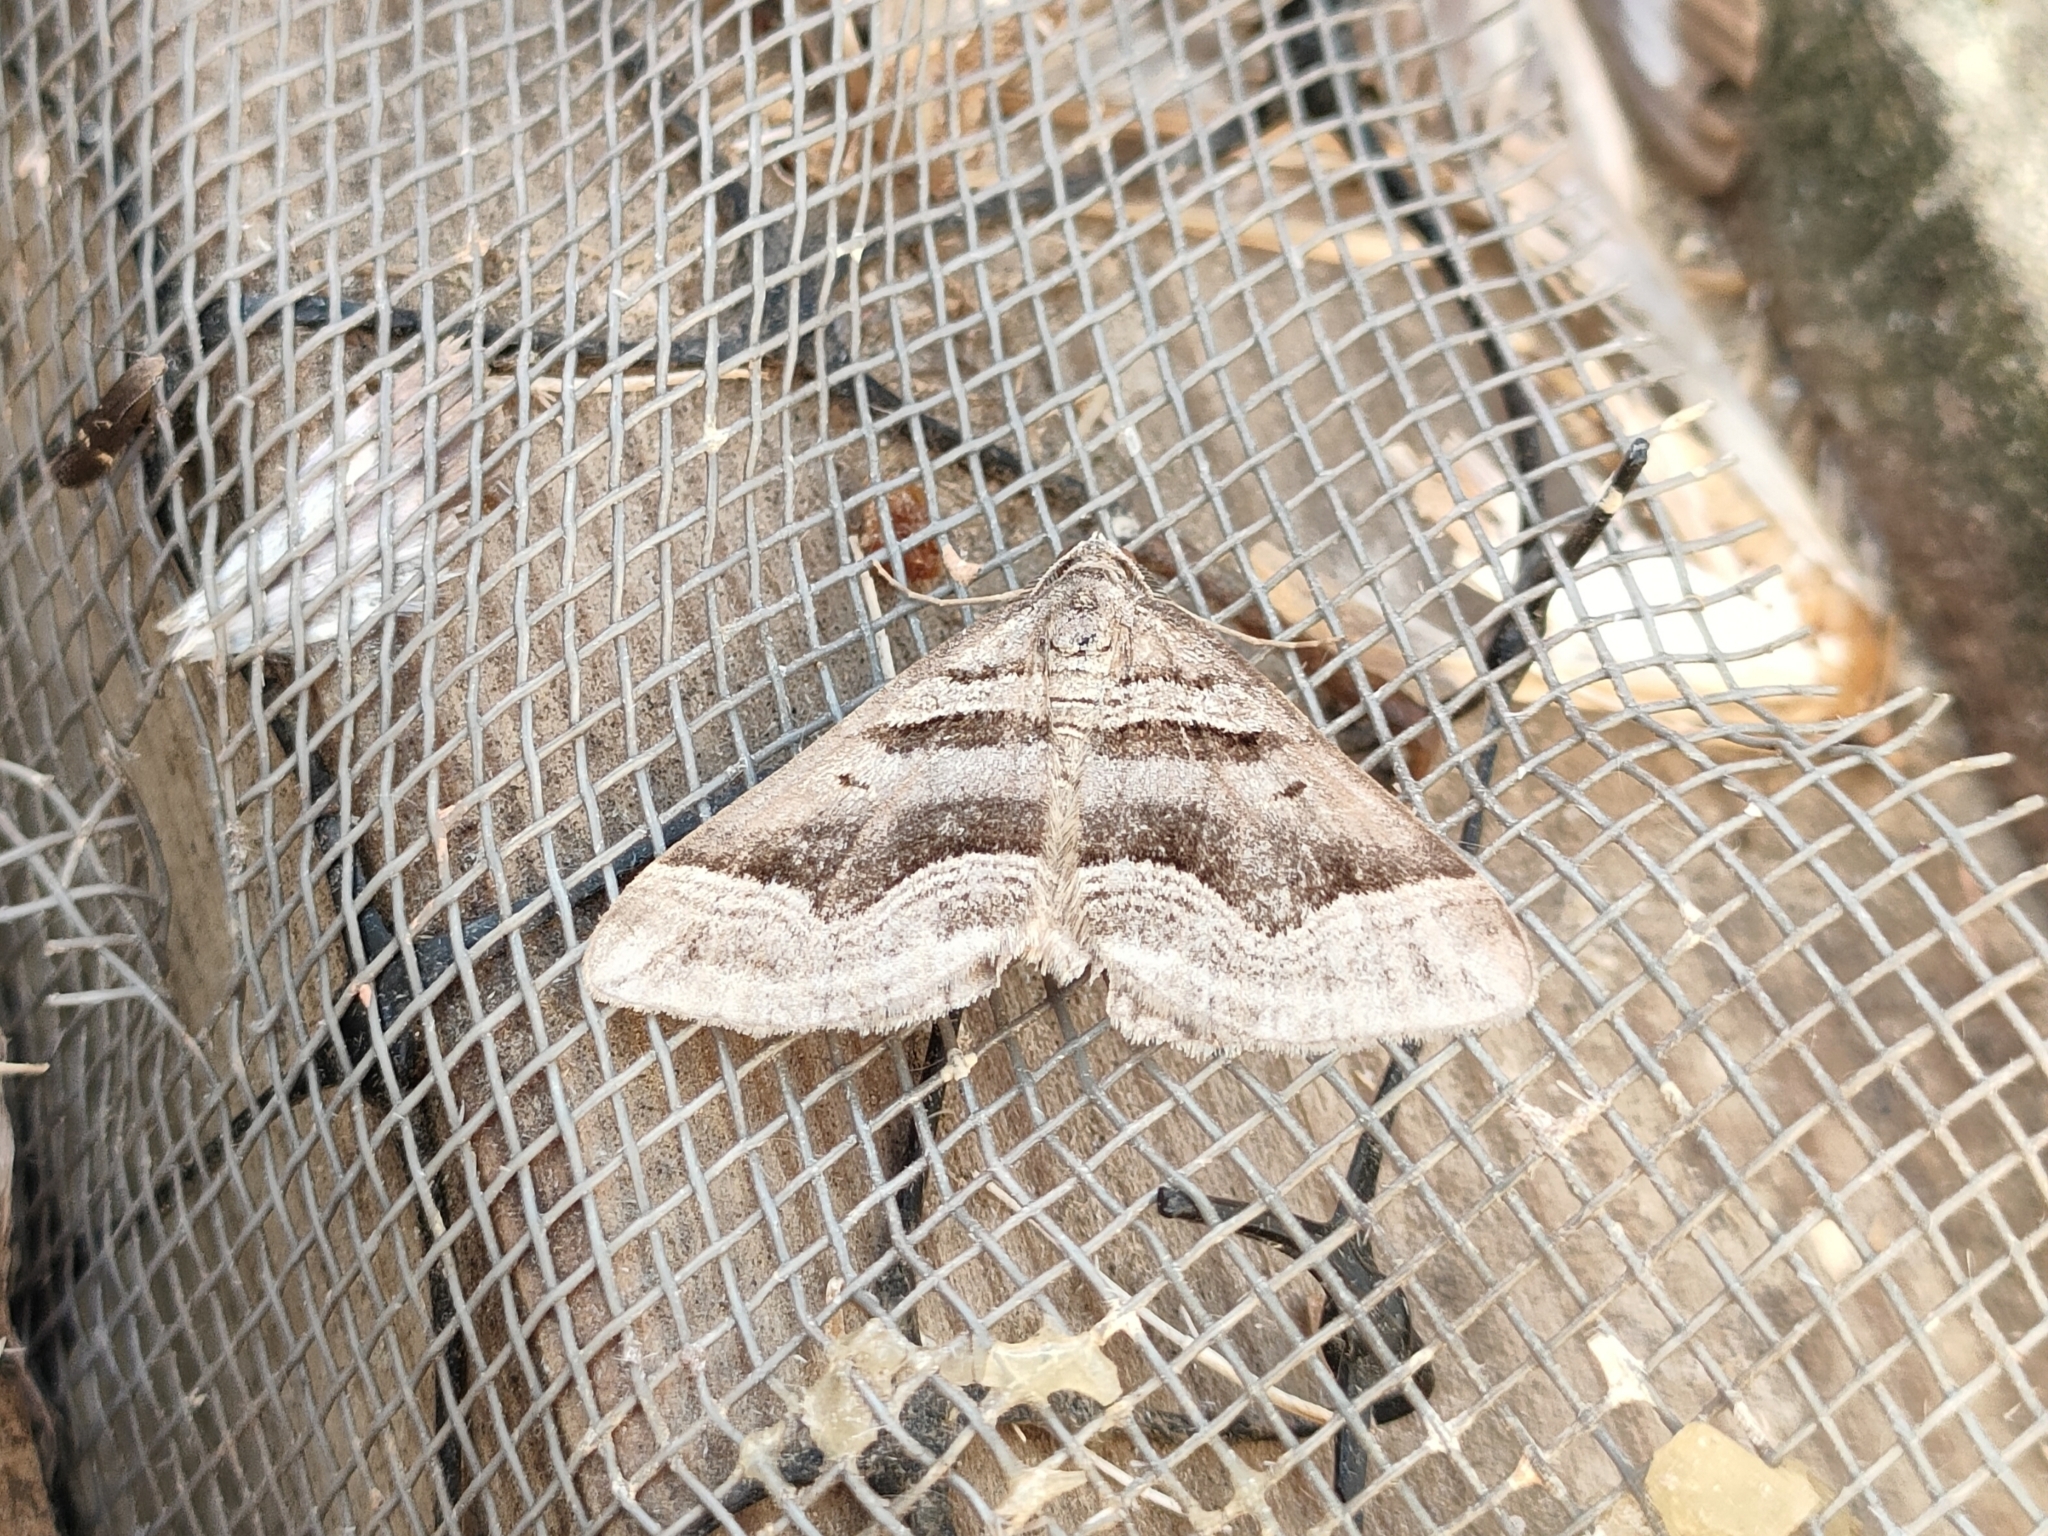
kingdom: Animalia
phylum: Arthropoda
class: Insecta
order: Lepidoptera
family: Geometridae
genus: Scotopteryx
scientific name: Scotopteryx peribolata
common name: Spanish carpet
